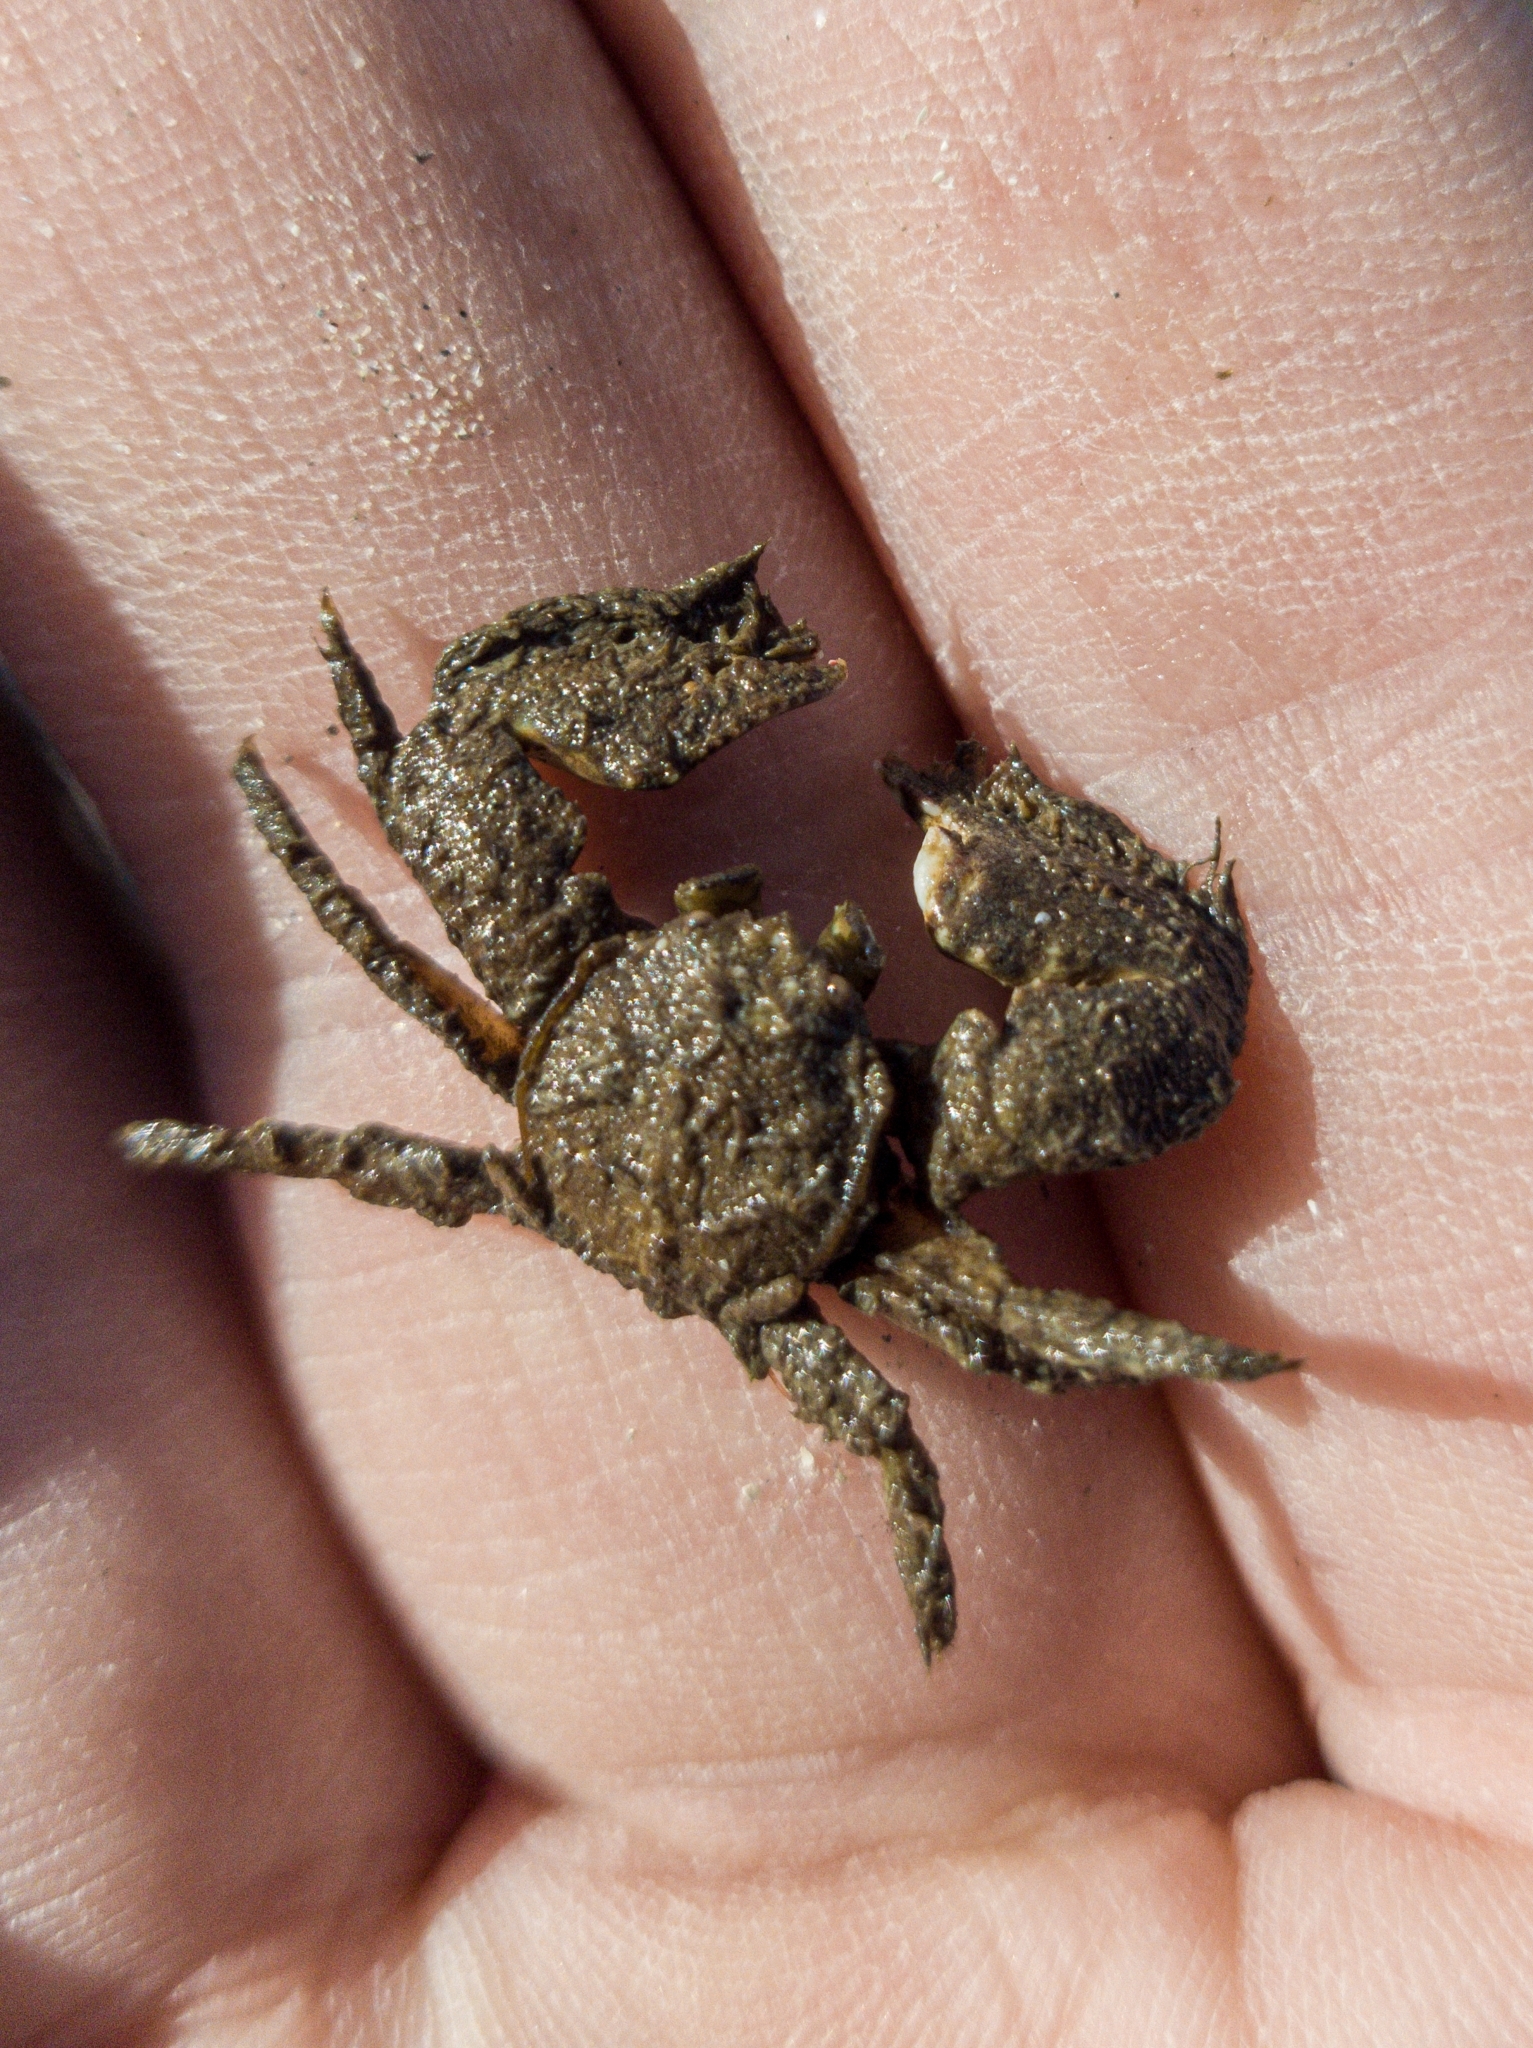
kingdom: Animalia
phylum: Arthropoda
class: Malacostraca
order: Decapoda
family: Porcellanidae
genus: Porcellana
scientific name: Porcellana platycheles
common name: Porcelain crab
